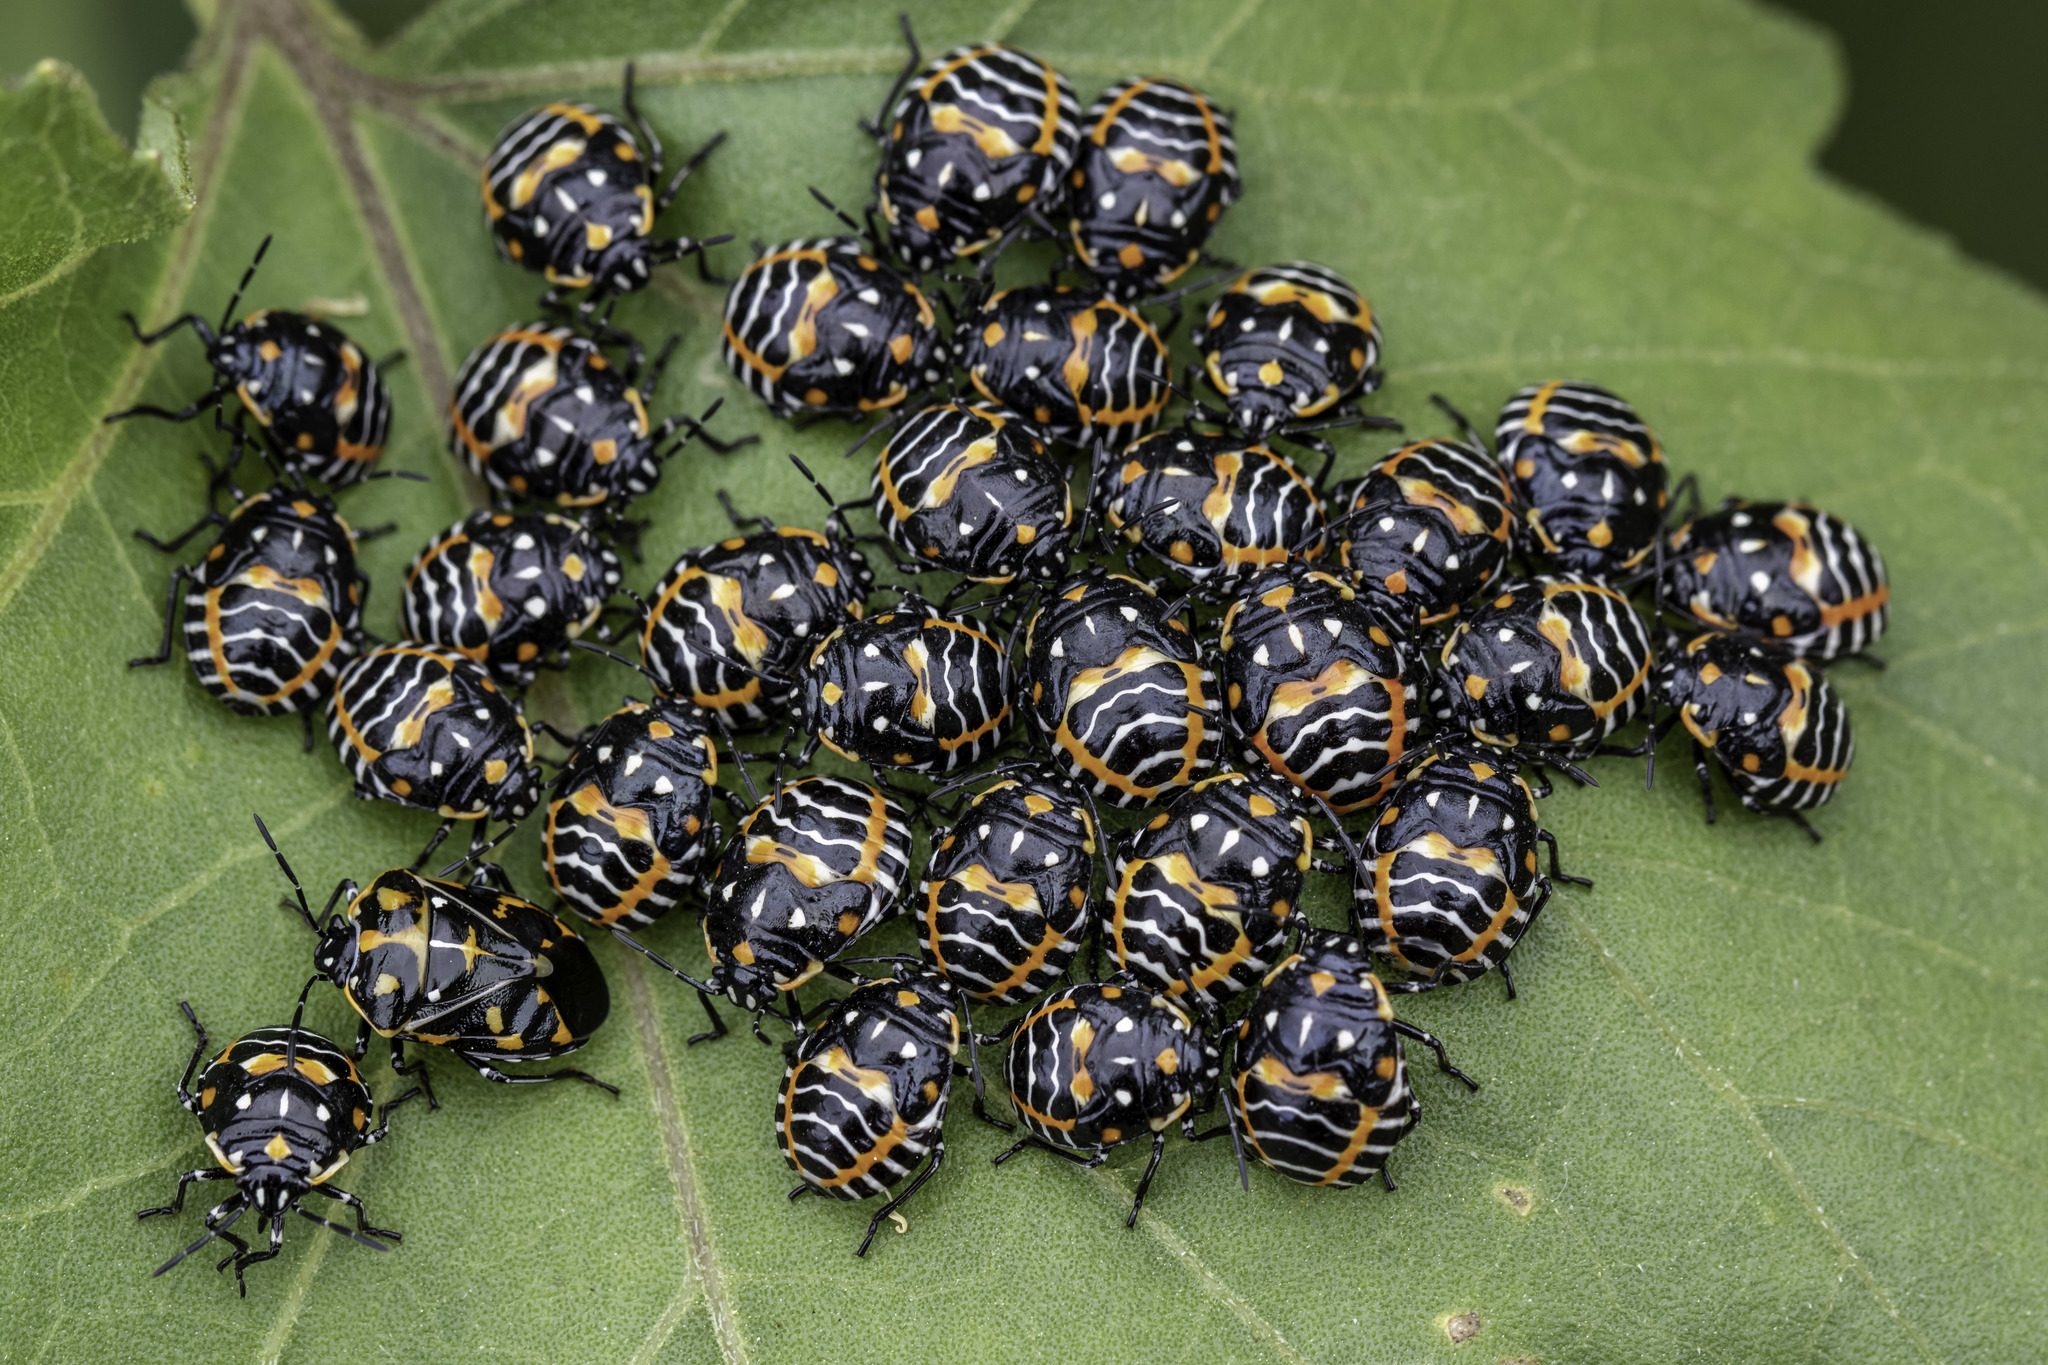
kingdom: Animalia
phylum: Arthropoda
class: Insecta
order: Hemiptera
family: Pentatomidae
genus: Murgantia
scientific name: Murgantia histrionica
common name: Harlequin bug
